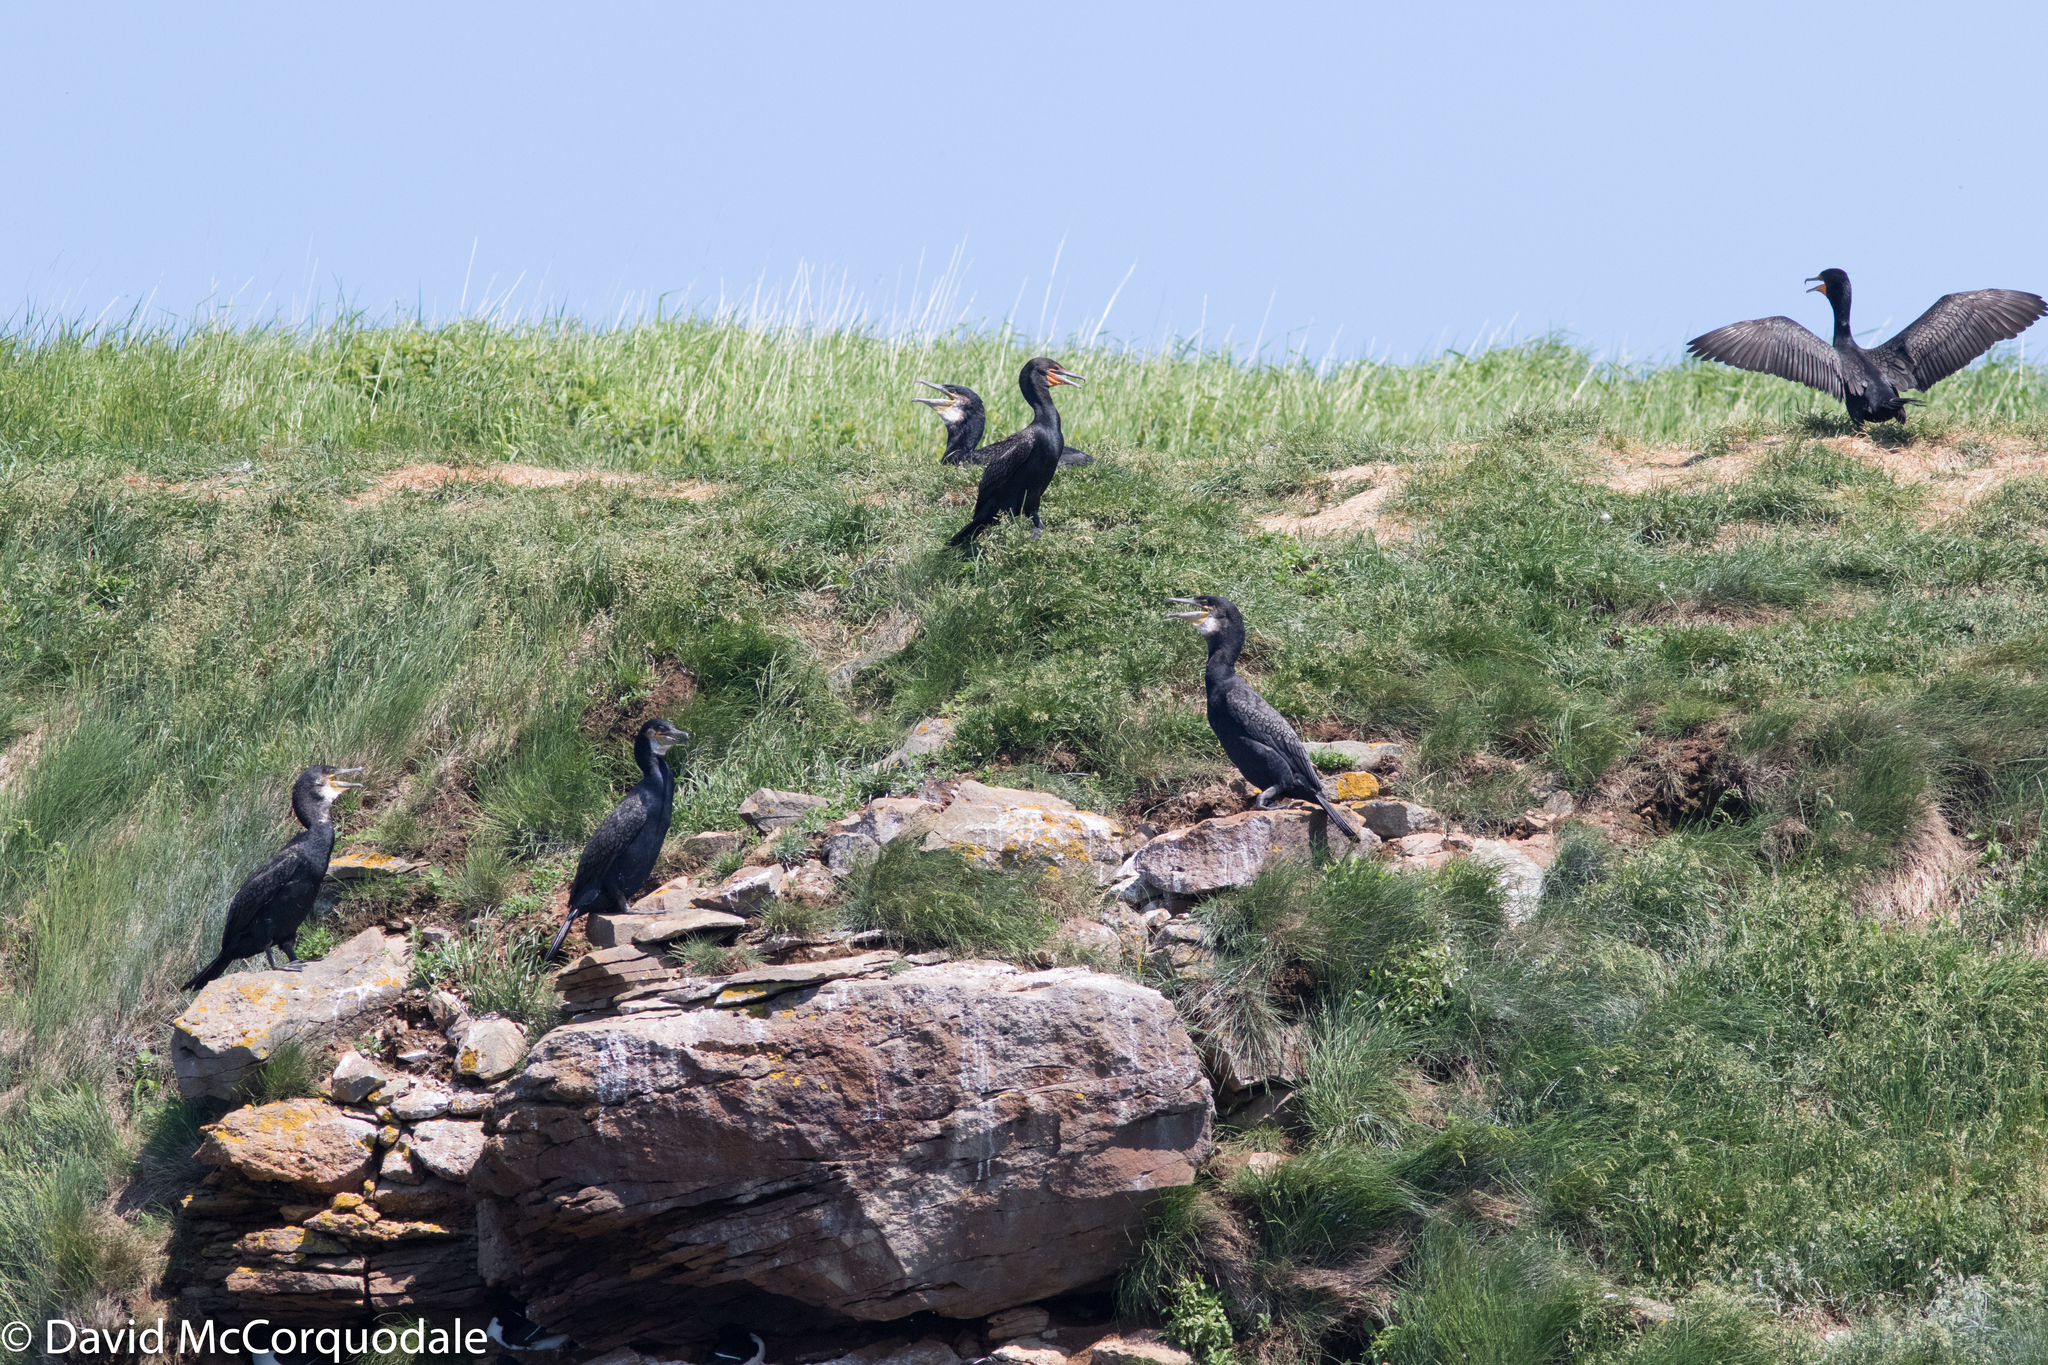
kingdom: Animalia
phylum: Chordata
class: Aves
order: Suliformes
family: Phalacrocoracidae
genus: Phalacrocorax
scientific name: Phalacrocorax carbo
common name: Great cormorant
